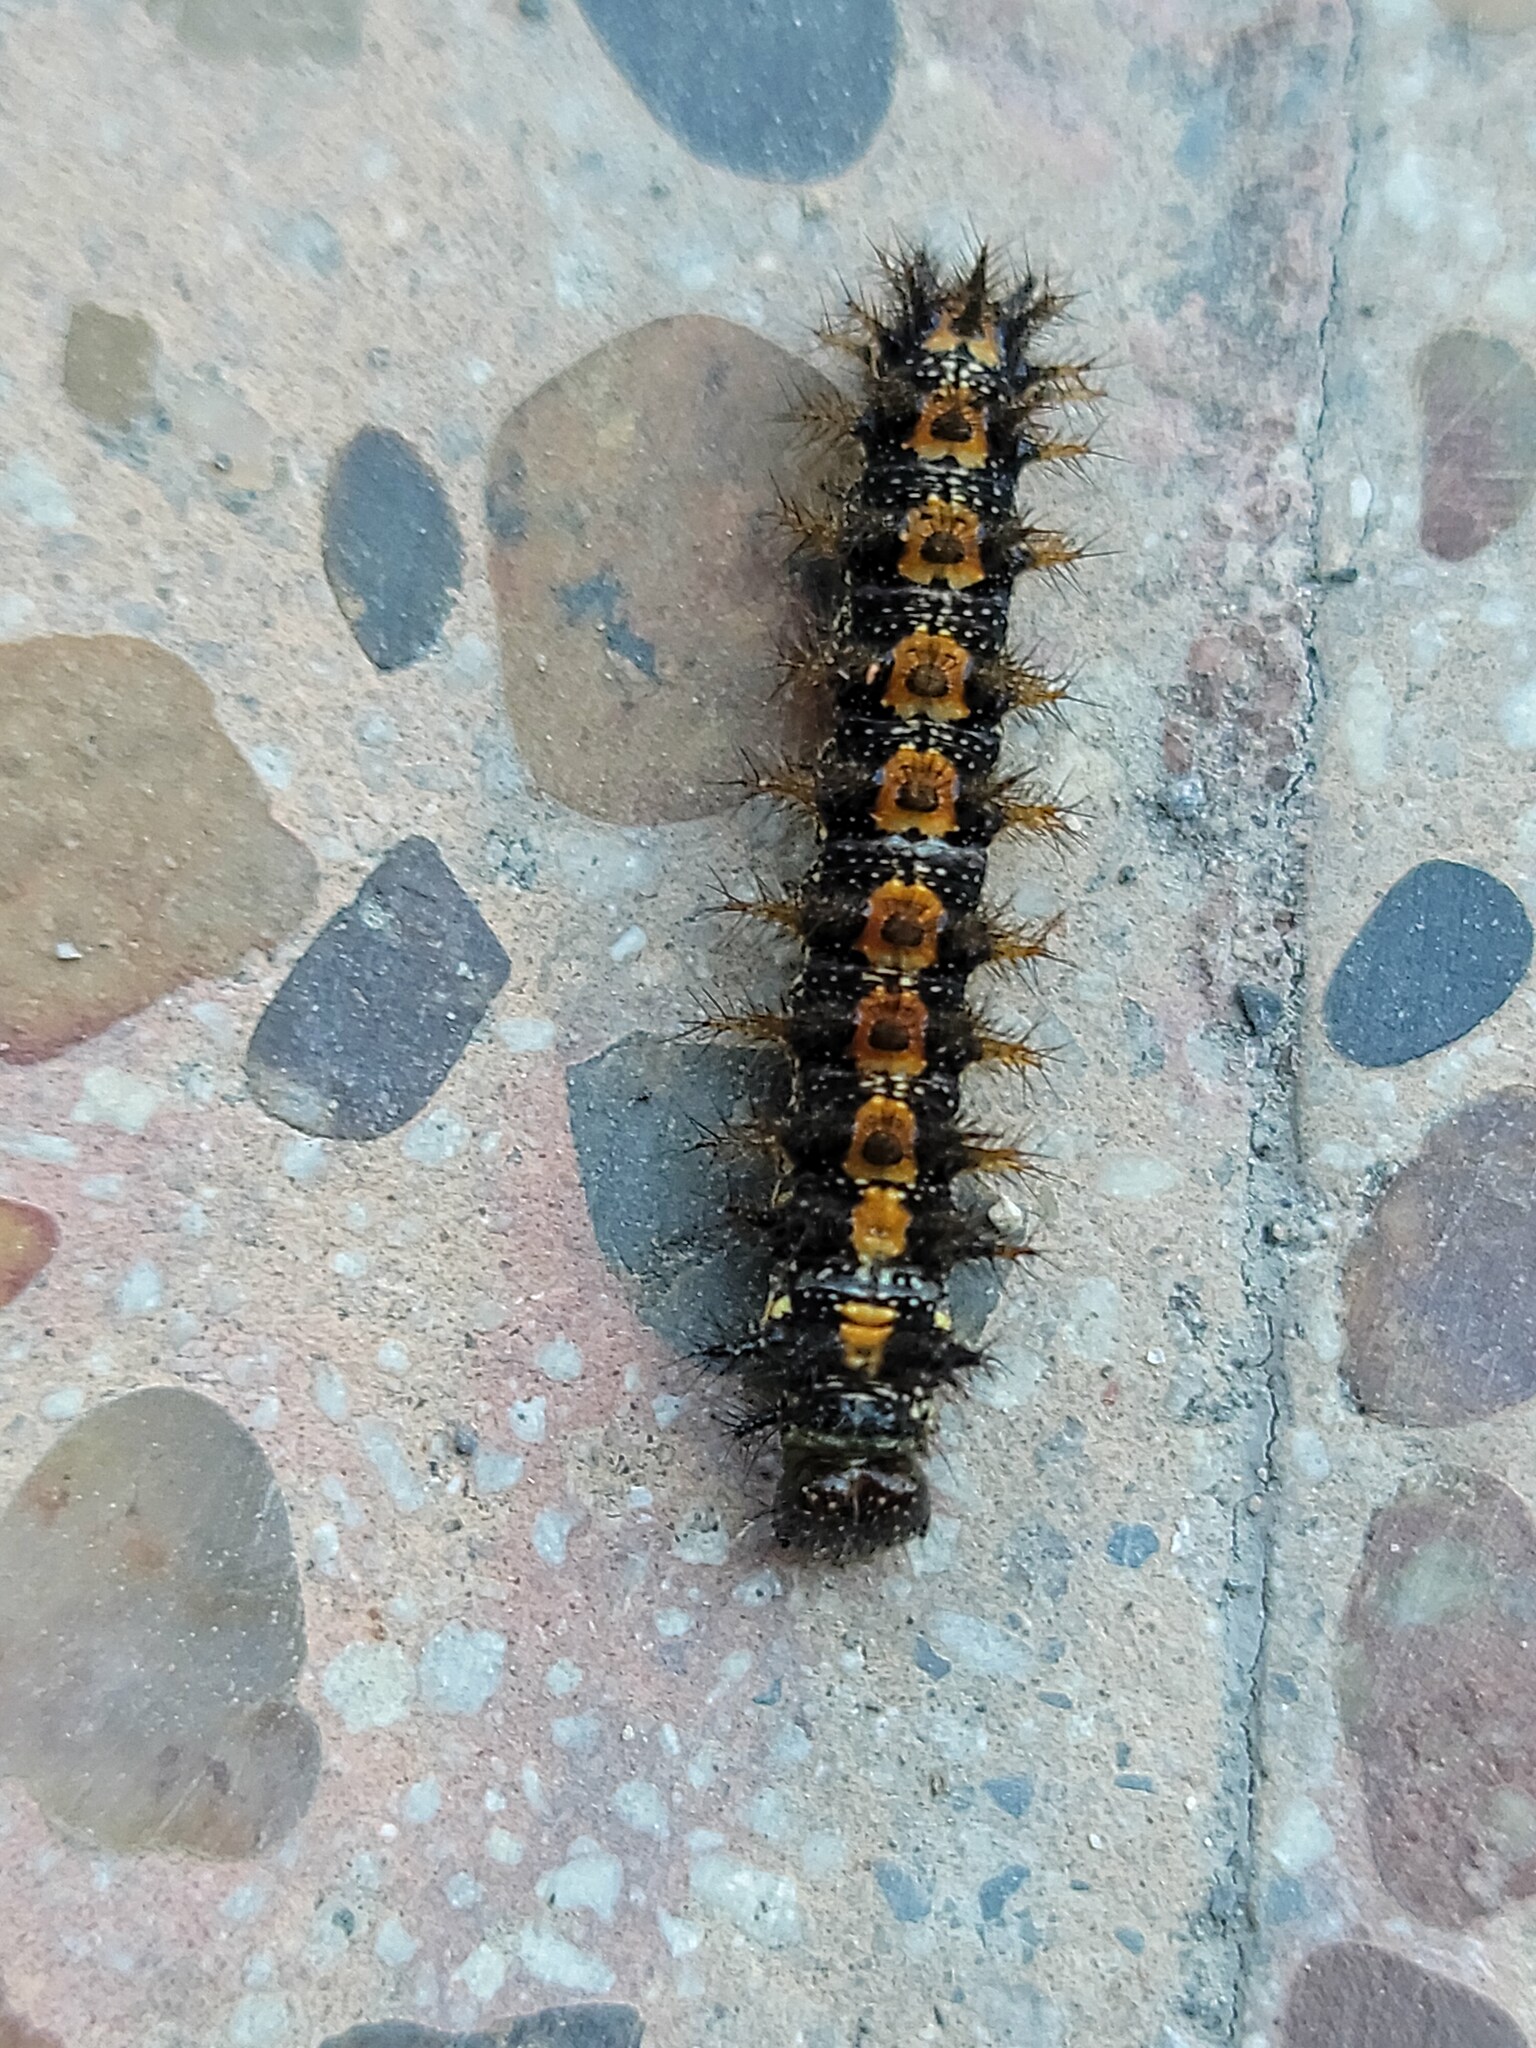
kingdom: Animalia
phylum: Arthropoda
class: Insecta
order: Lepidoptera
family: Nymphalidae
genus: Chlosyne
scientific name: Chlosyne lacinia
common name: Bordered patch
